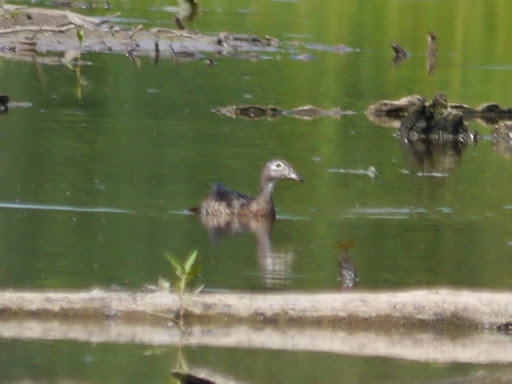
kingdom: Animalia
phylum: Chordata
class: Aves
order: Anseriformes
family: Anatidae
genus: Aix
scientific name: Aix sponsa
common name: Wood duck
